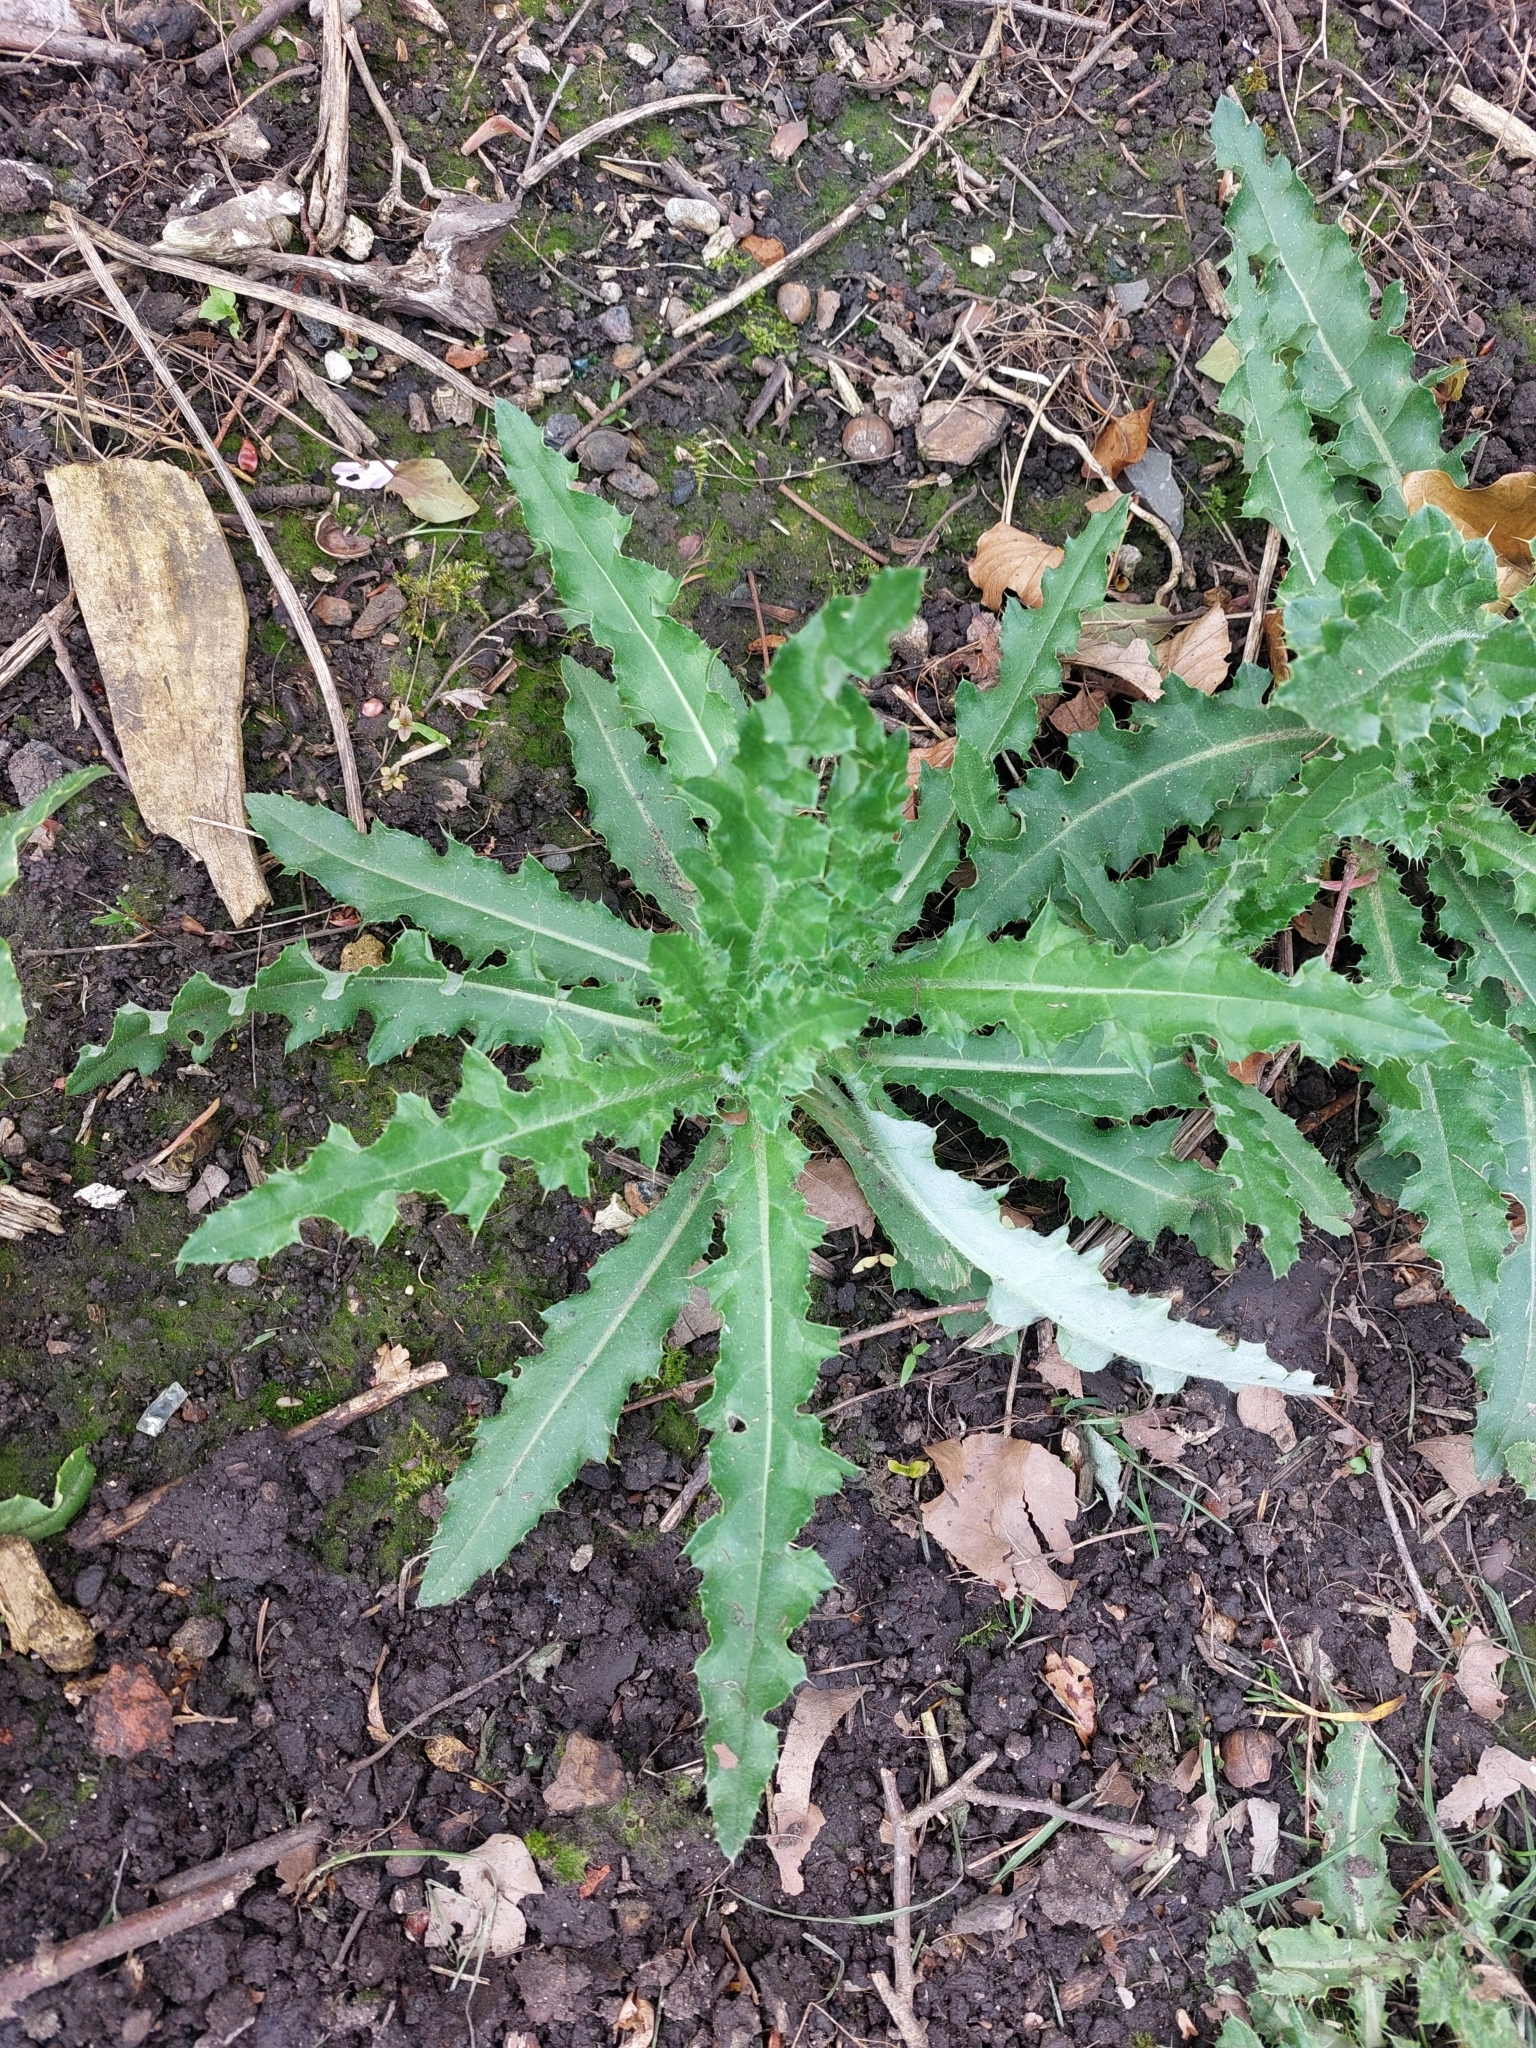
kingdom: Plantae
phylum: Tracheophyta
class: Magnoliopsida
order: Asterales
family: Asteraceae
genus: Sonchus
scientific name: Sonchus asper
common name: Prickly sow-thistle
